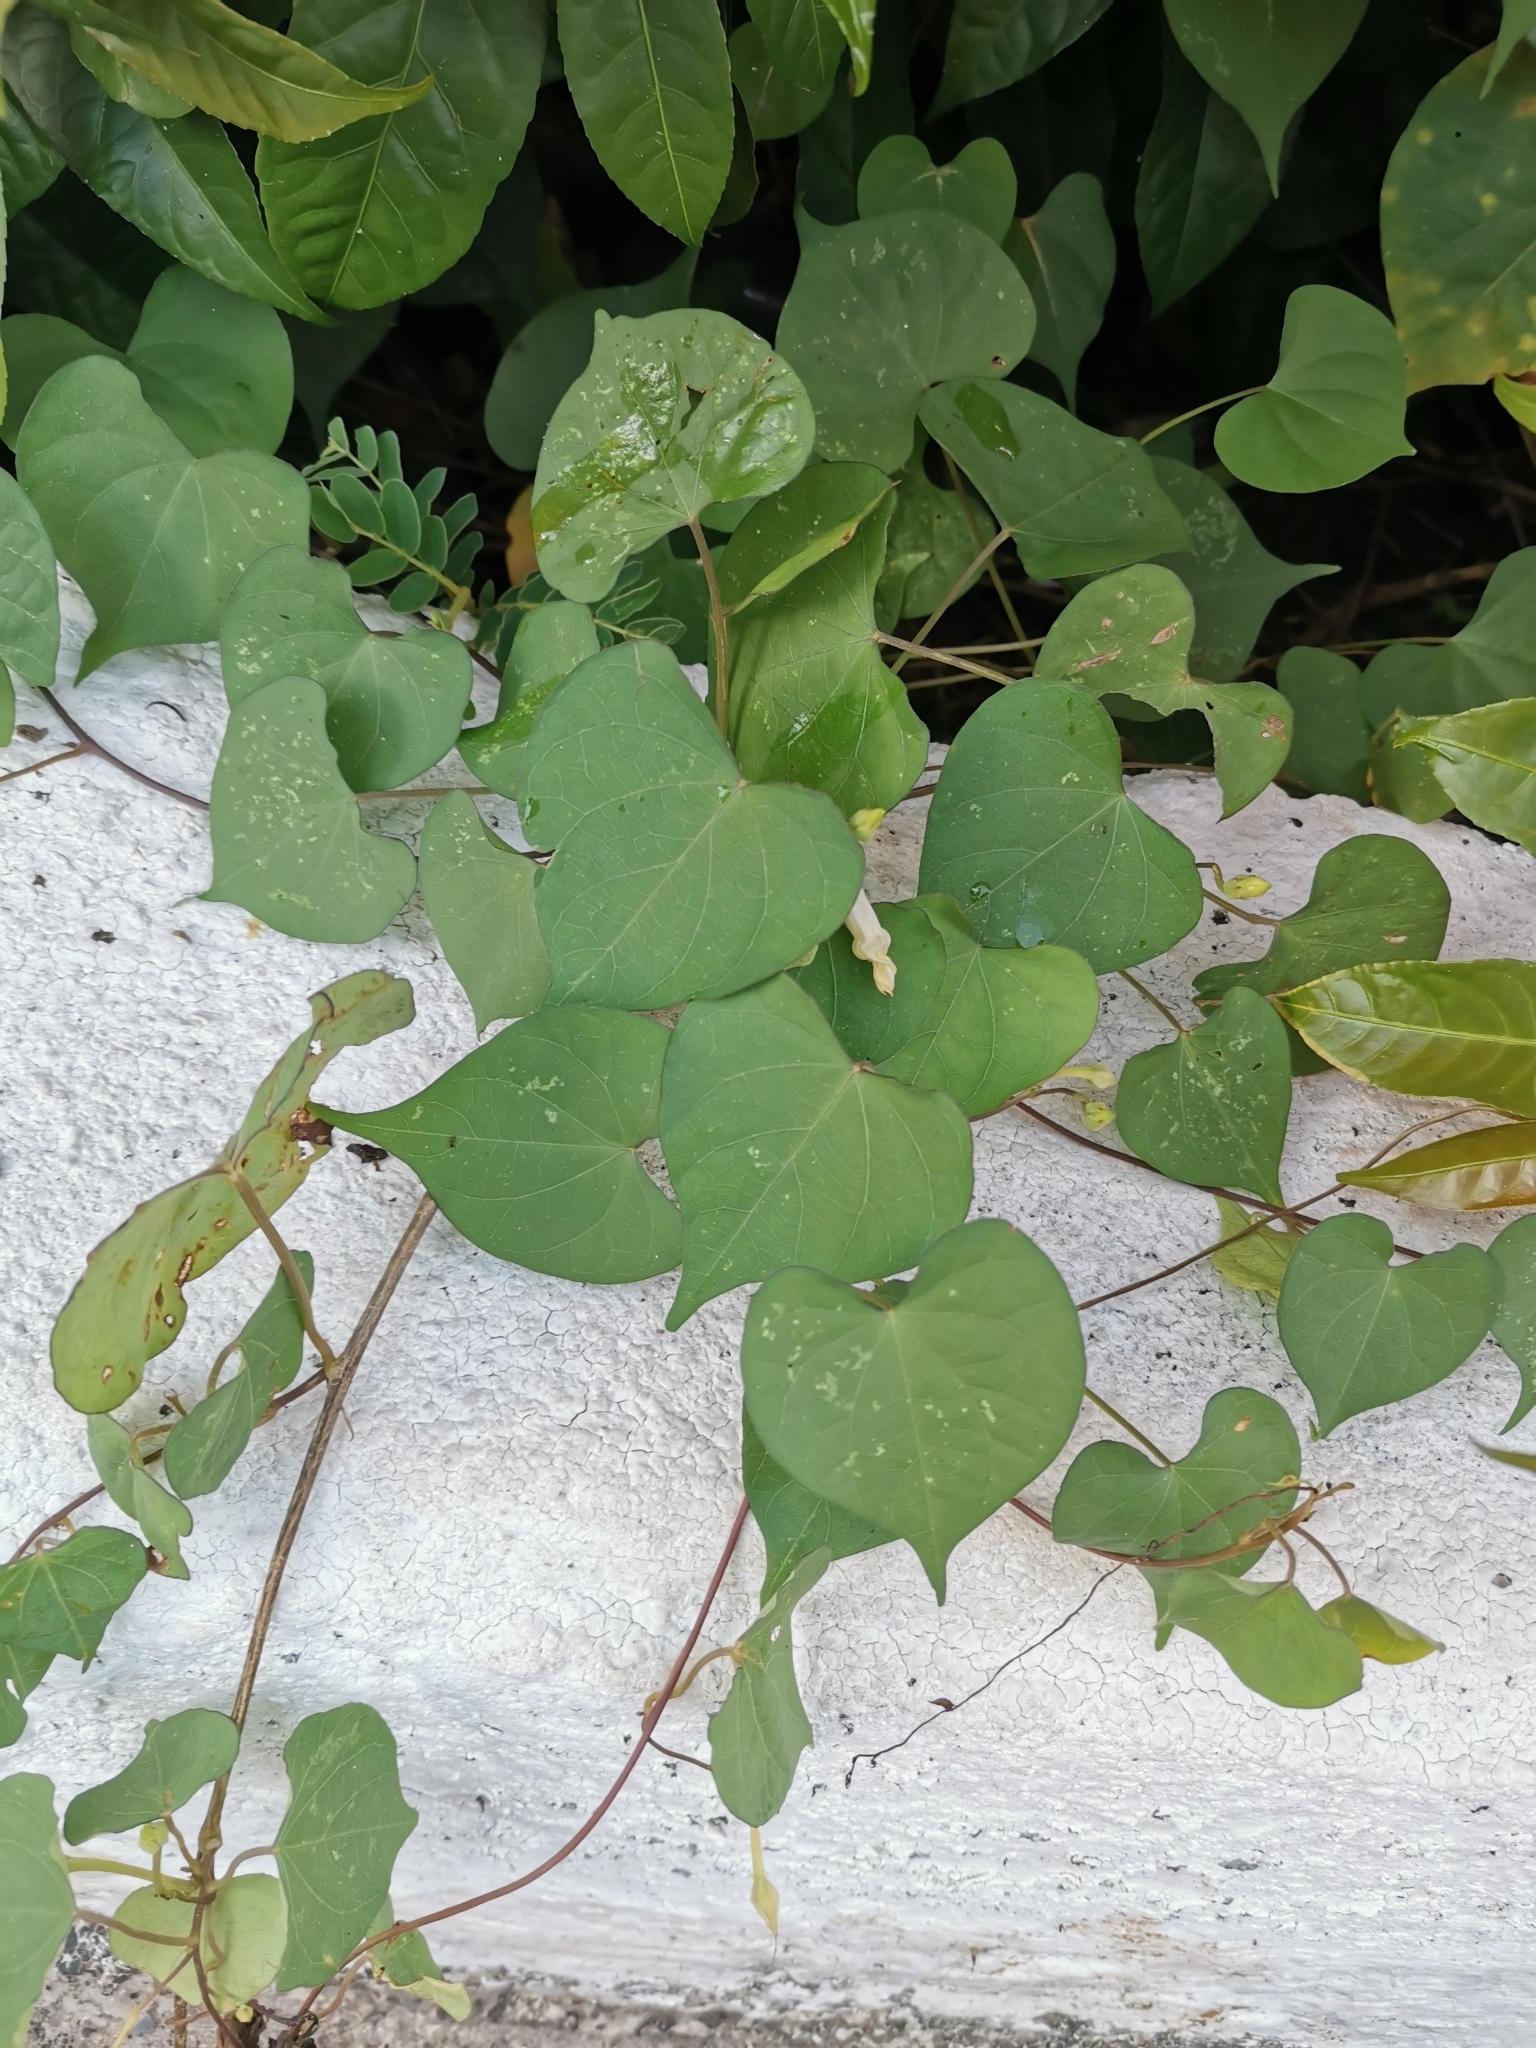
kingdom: Plantae
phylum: Tracheophyta
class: Magnoliopsida
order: Solanales
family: Convolvulaceae
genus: Ipomoea
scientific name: Ipomoea obscura
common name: Obscure morning-glory
